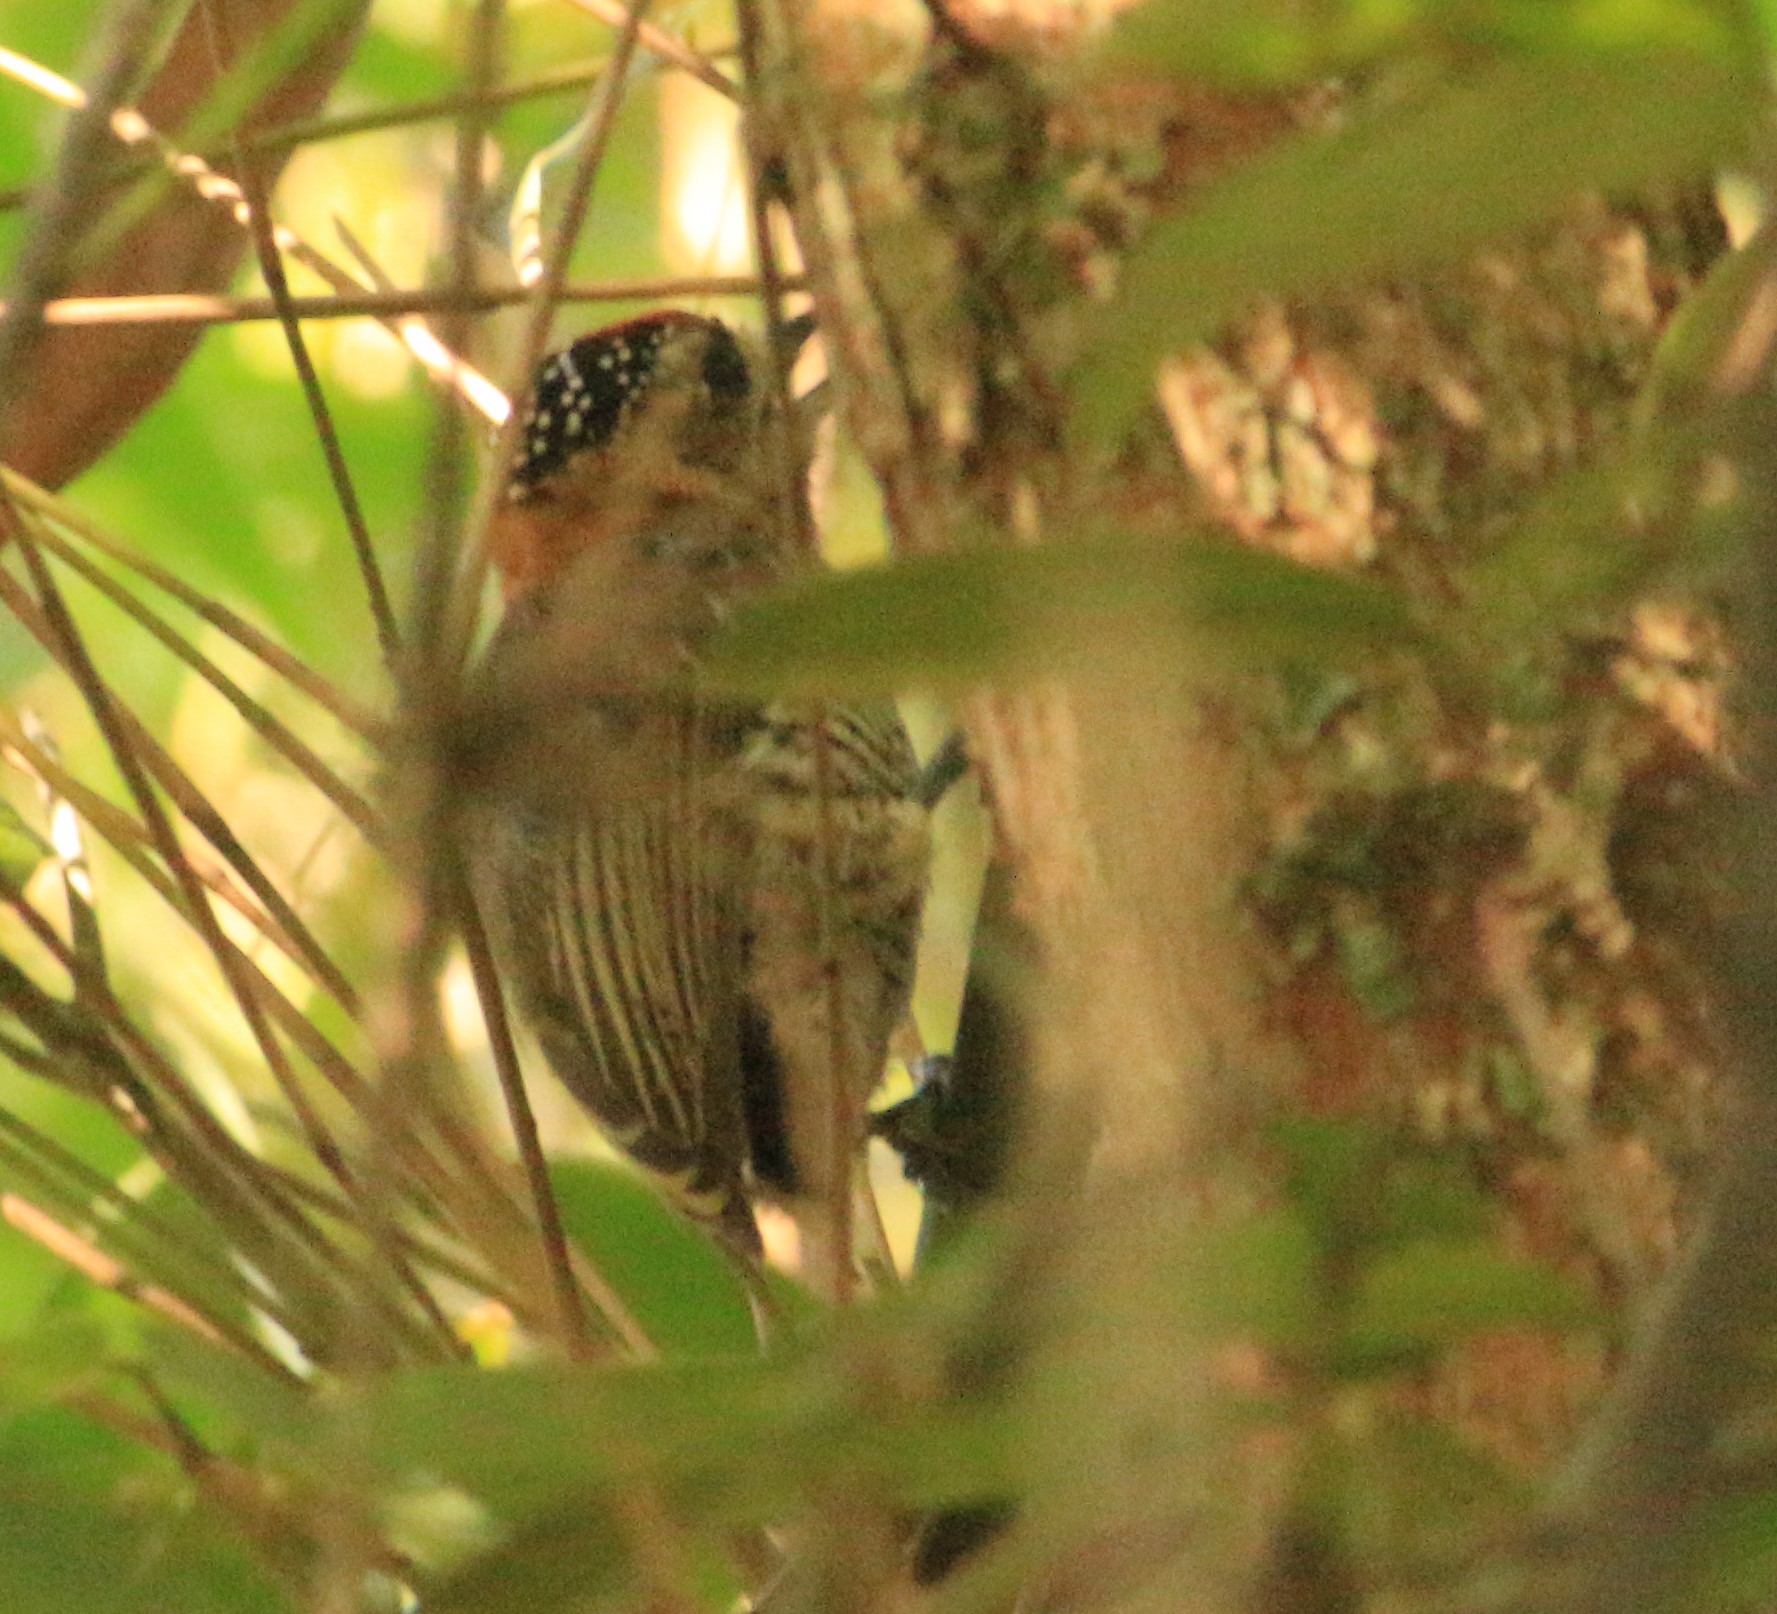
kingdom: Animalia
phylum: Chordata
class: Aves
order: Piciformes
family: Picidae
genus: Picumnus
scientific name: Picumnus temminckii
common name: Ochre-collared piculet
